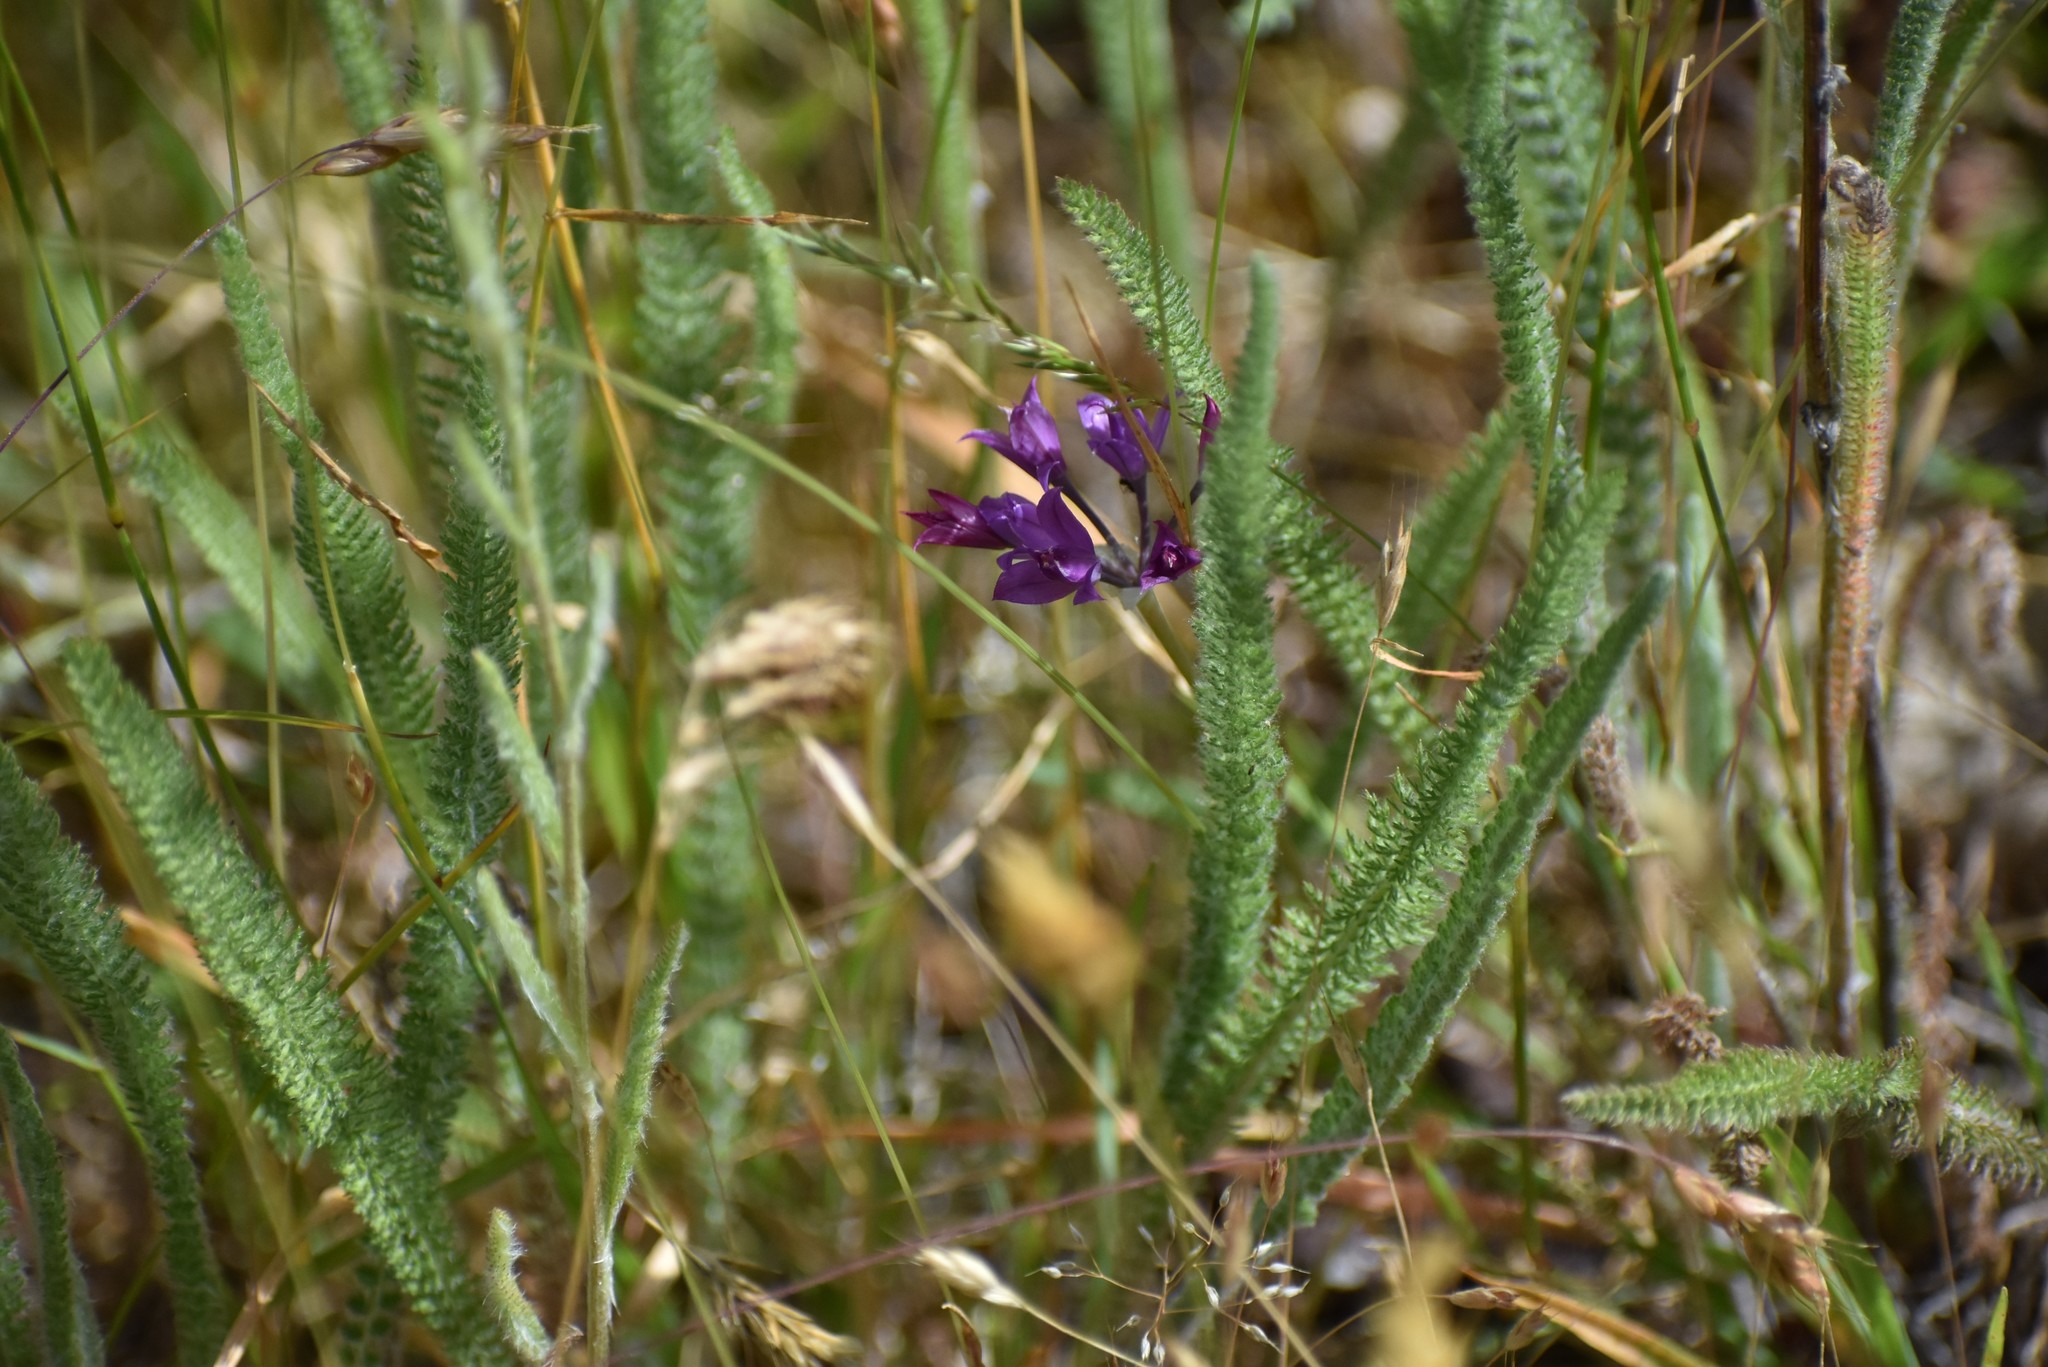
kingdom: Plantae
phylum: Tracheophyta
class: Liliopsida
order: Asparagales
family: Amaryllidaceae
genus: Allium
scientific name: Allium acuminatum
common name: Hooker's onion
